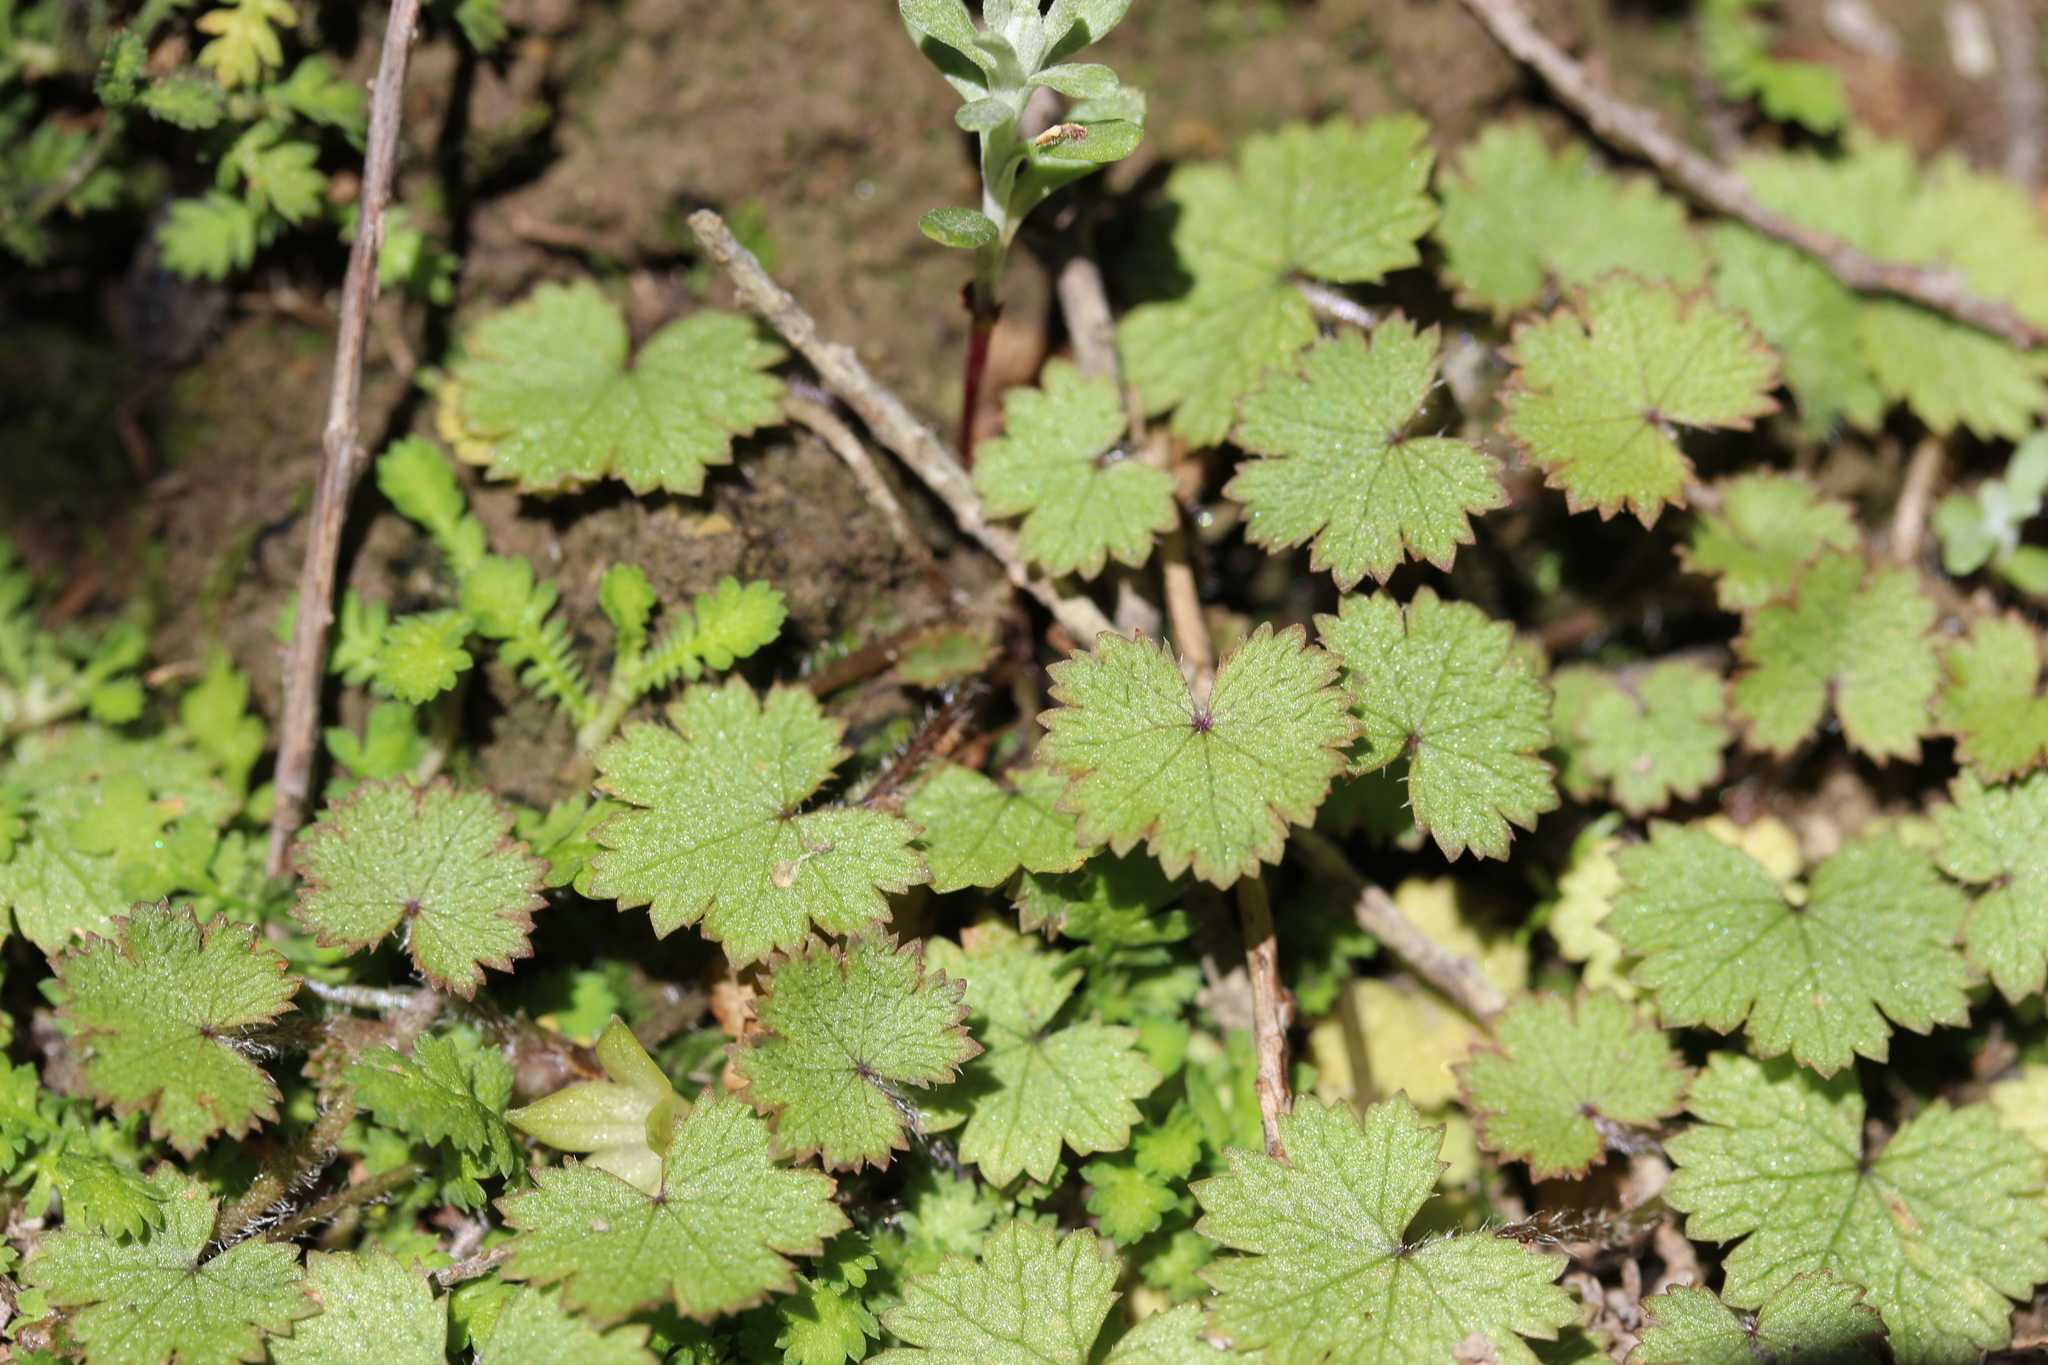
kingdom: Plantae
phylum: Tracheophyta
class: Magnoliopsida
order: Apiales
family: Araliaceae
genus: Hydrocotyle
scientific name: Hydrocotyle moschata
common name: Hairy pennywort
